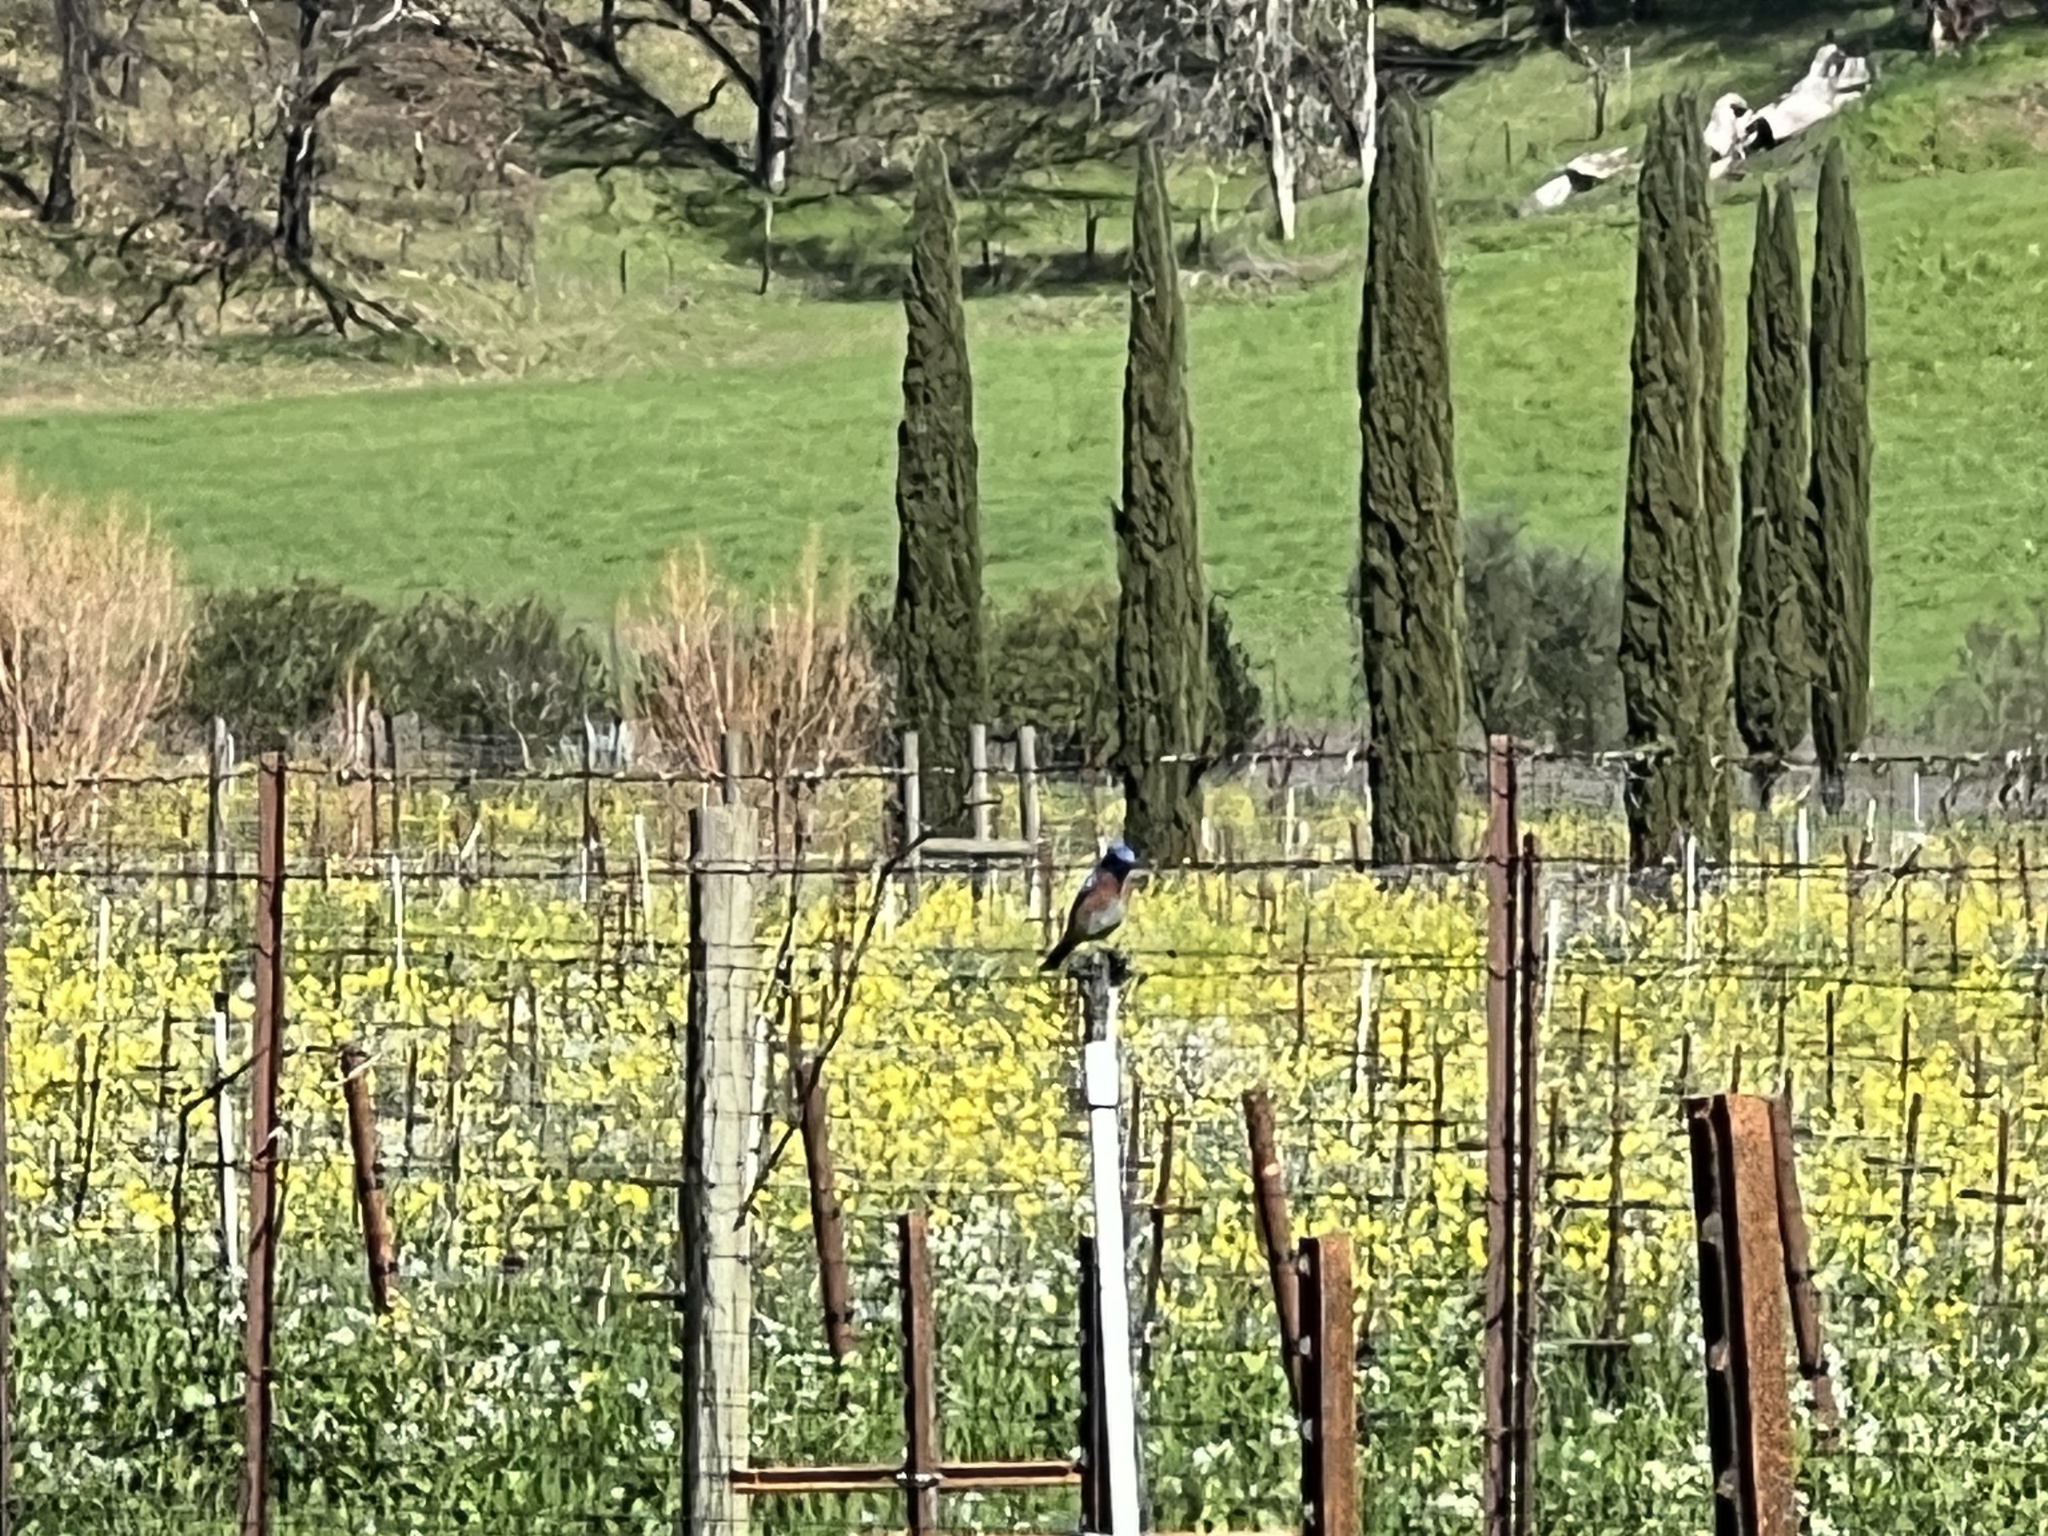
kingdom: Animalia
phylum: Chordata
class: Aves
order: Passeriformes
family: Turdidae
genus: Sialia
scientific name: Sialia mexicana
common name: Western bluebird
